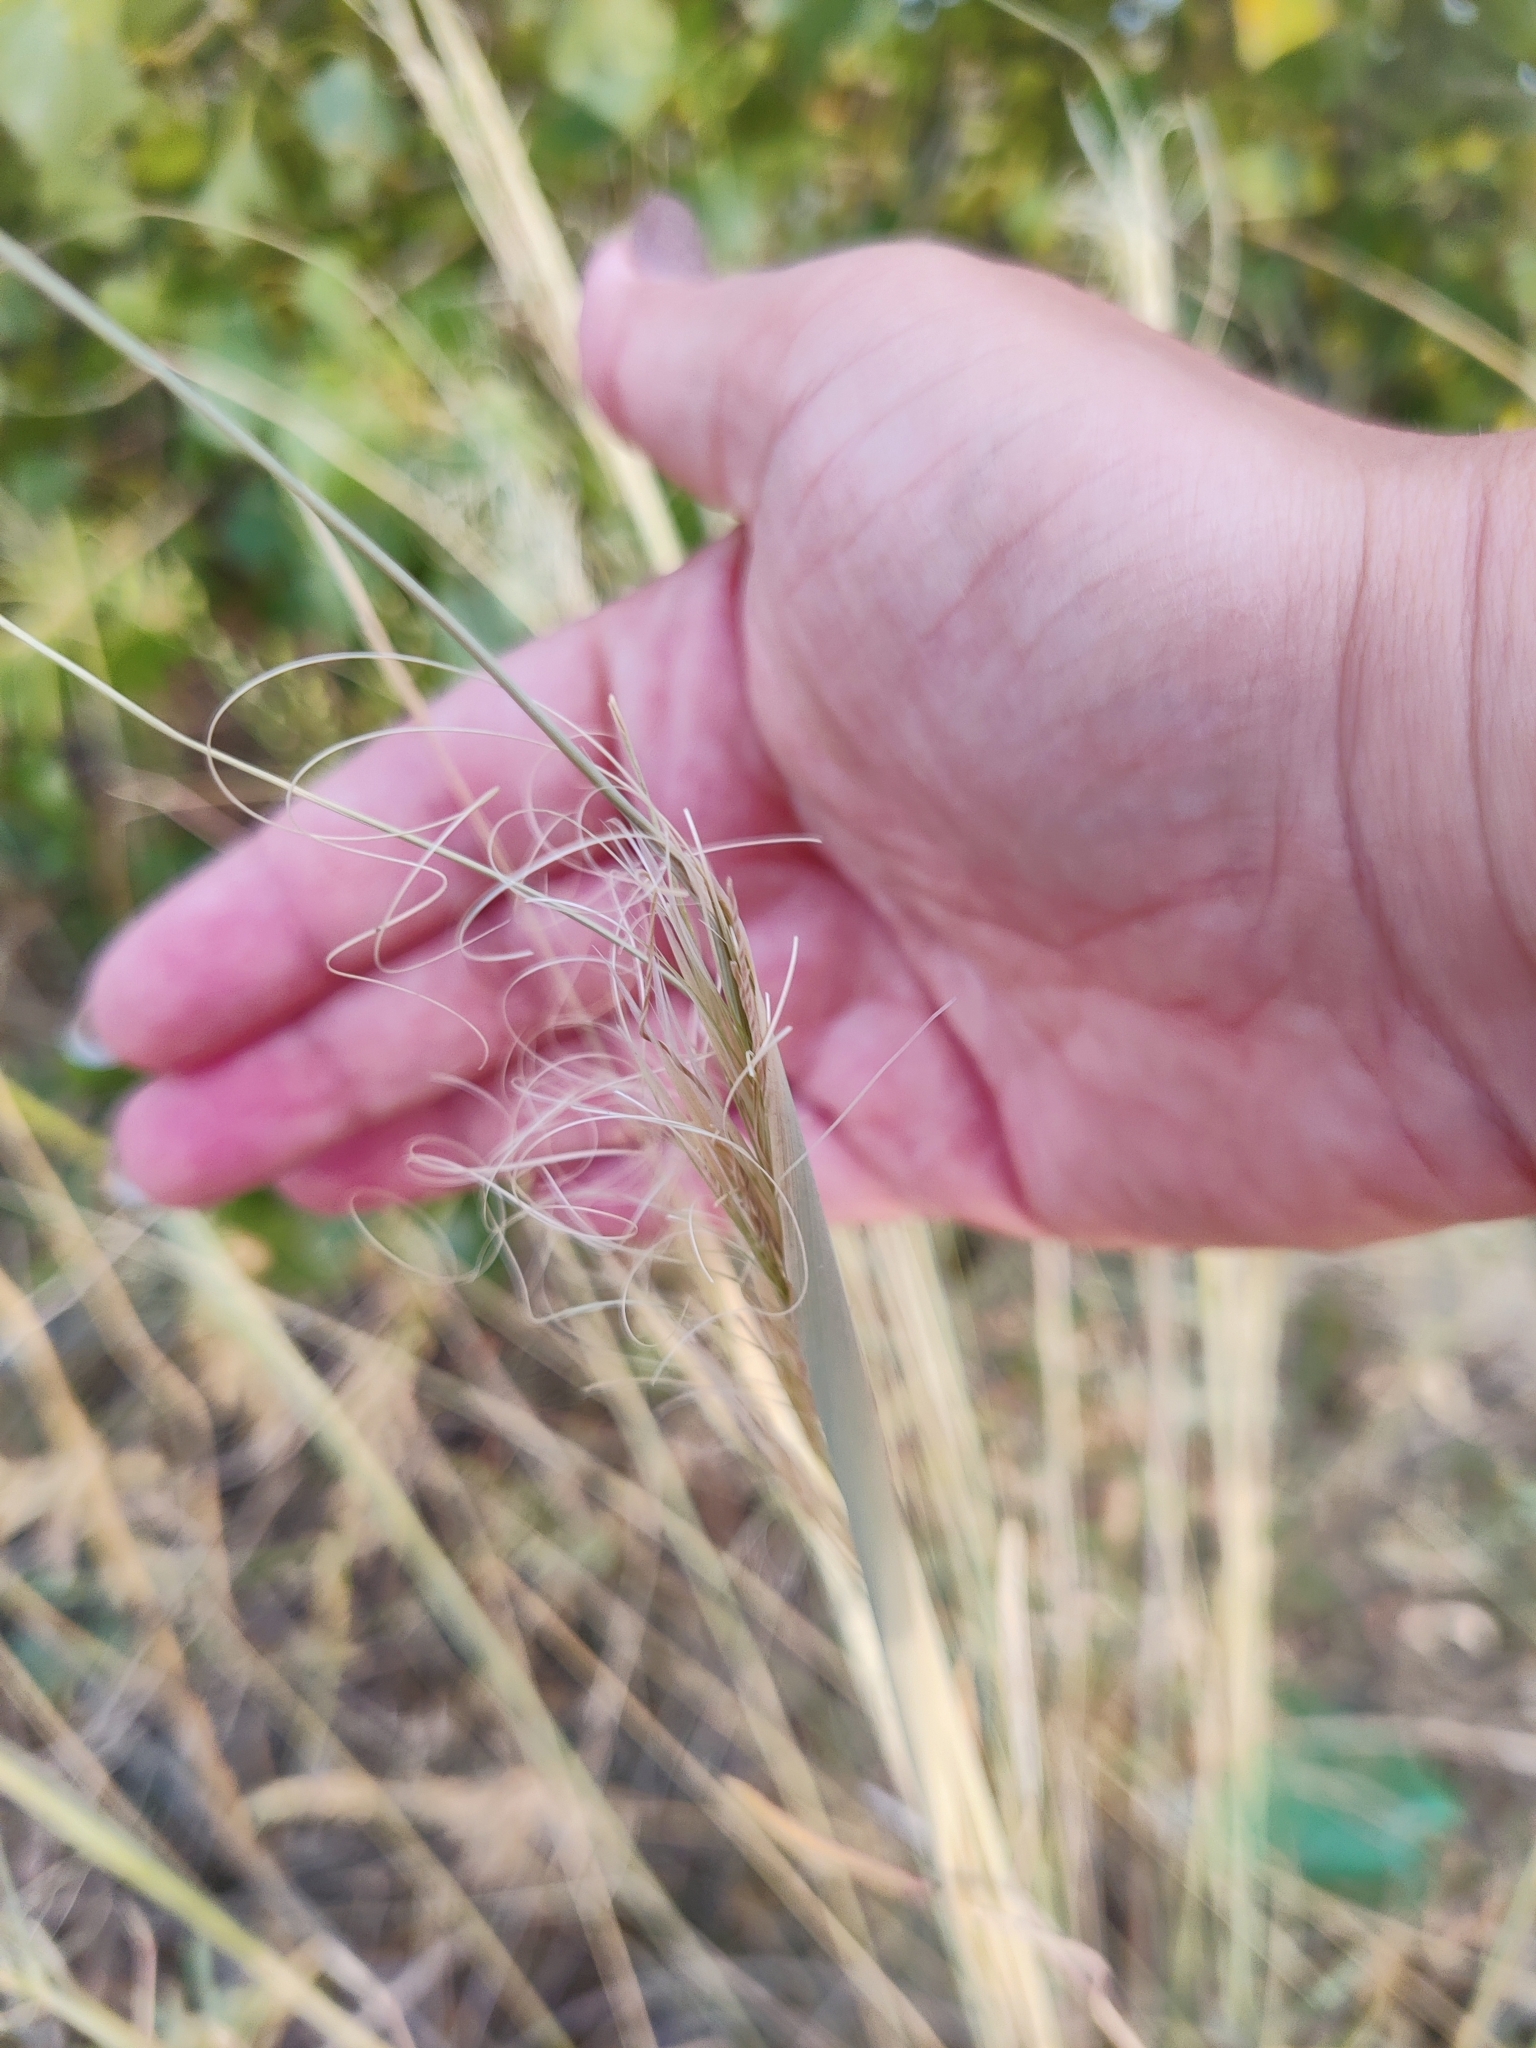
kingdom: Plantae
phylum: Tracheophyta
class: Liliopsida
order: Poales
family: Poaceae
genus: Stipa
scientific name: Stipa capillata
